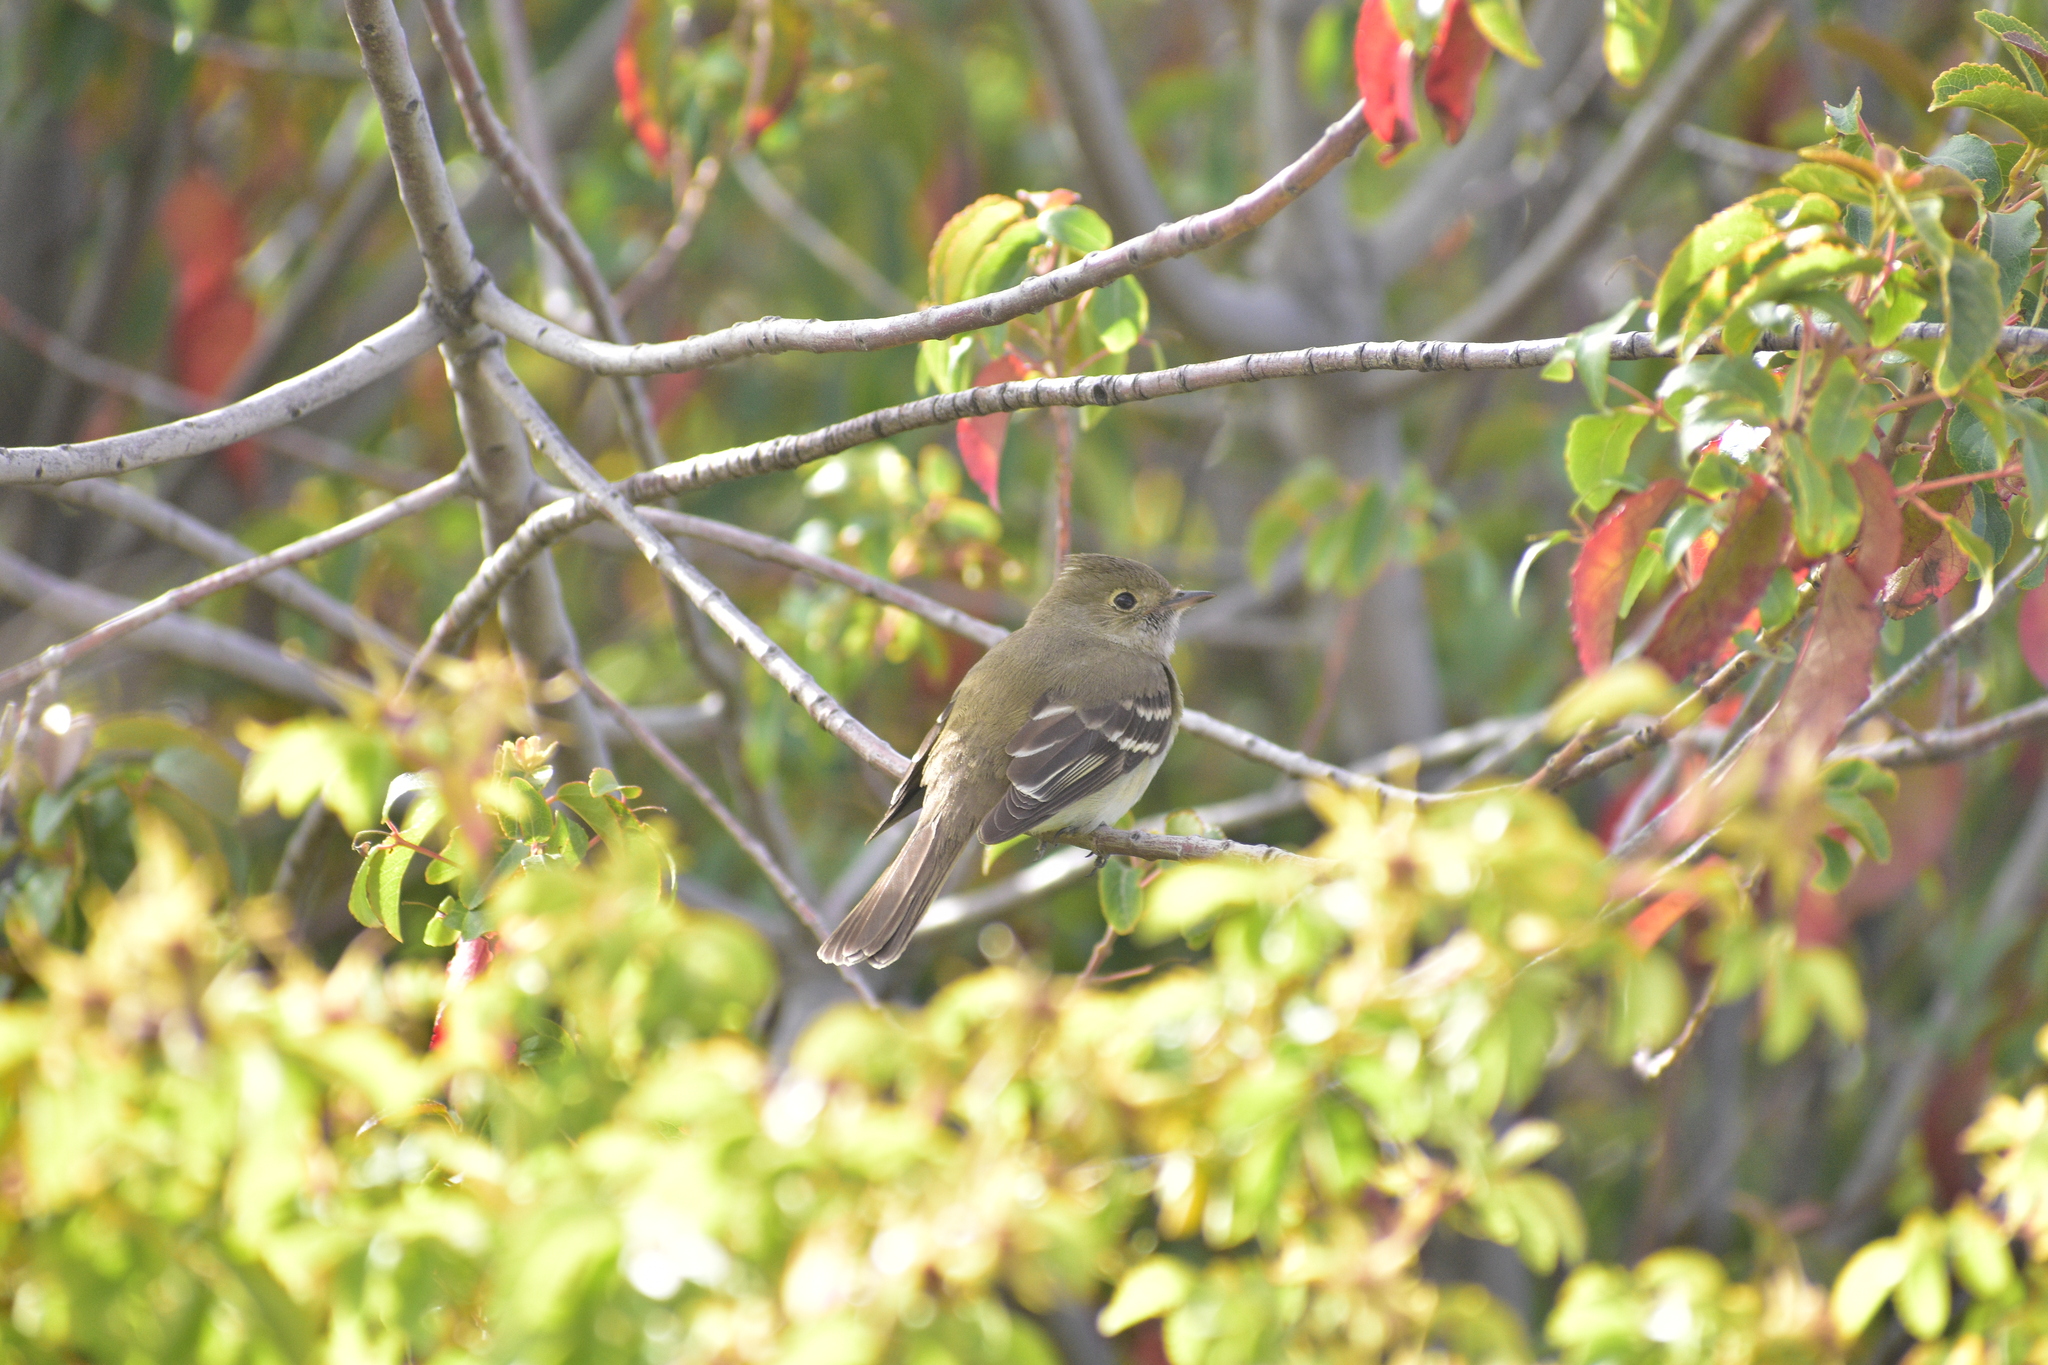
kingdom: Animalia
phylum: Chordata
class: Aves
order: Passeriformes
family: Tyrannidae
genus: Elaenia
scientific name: Elaenia albiceps
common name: White-crested elaenia
